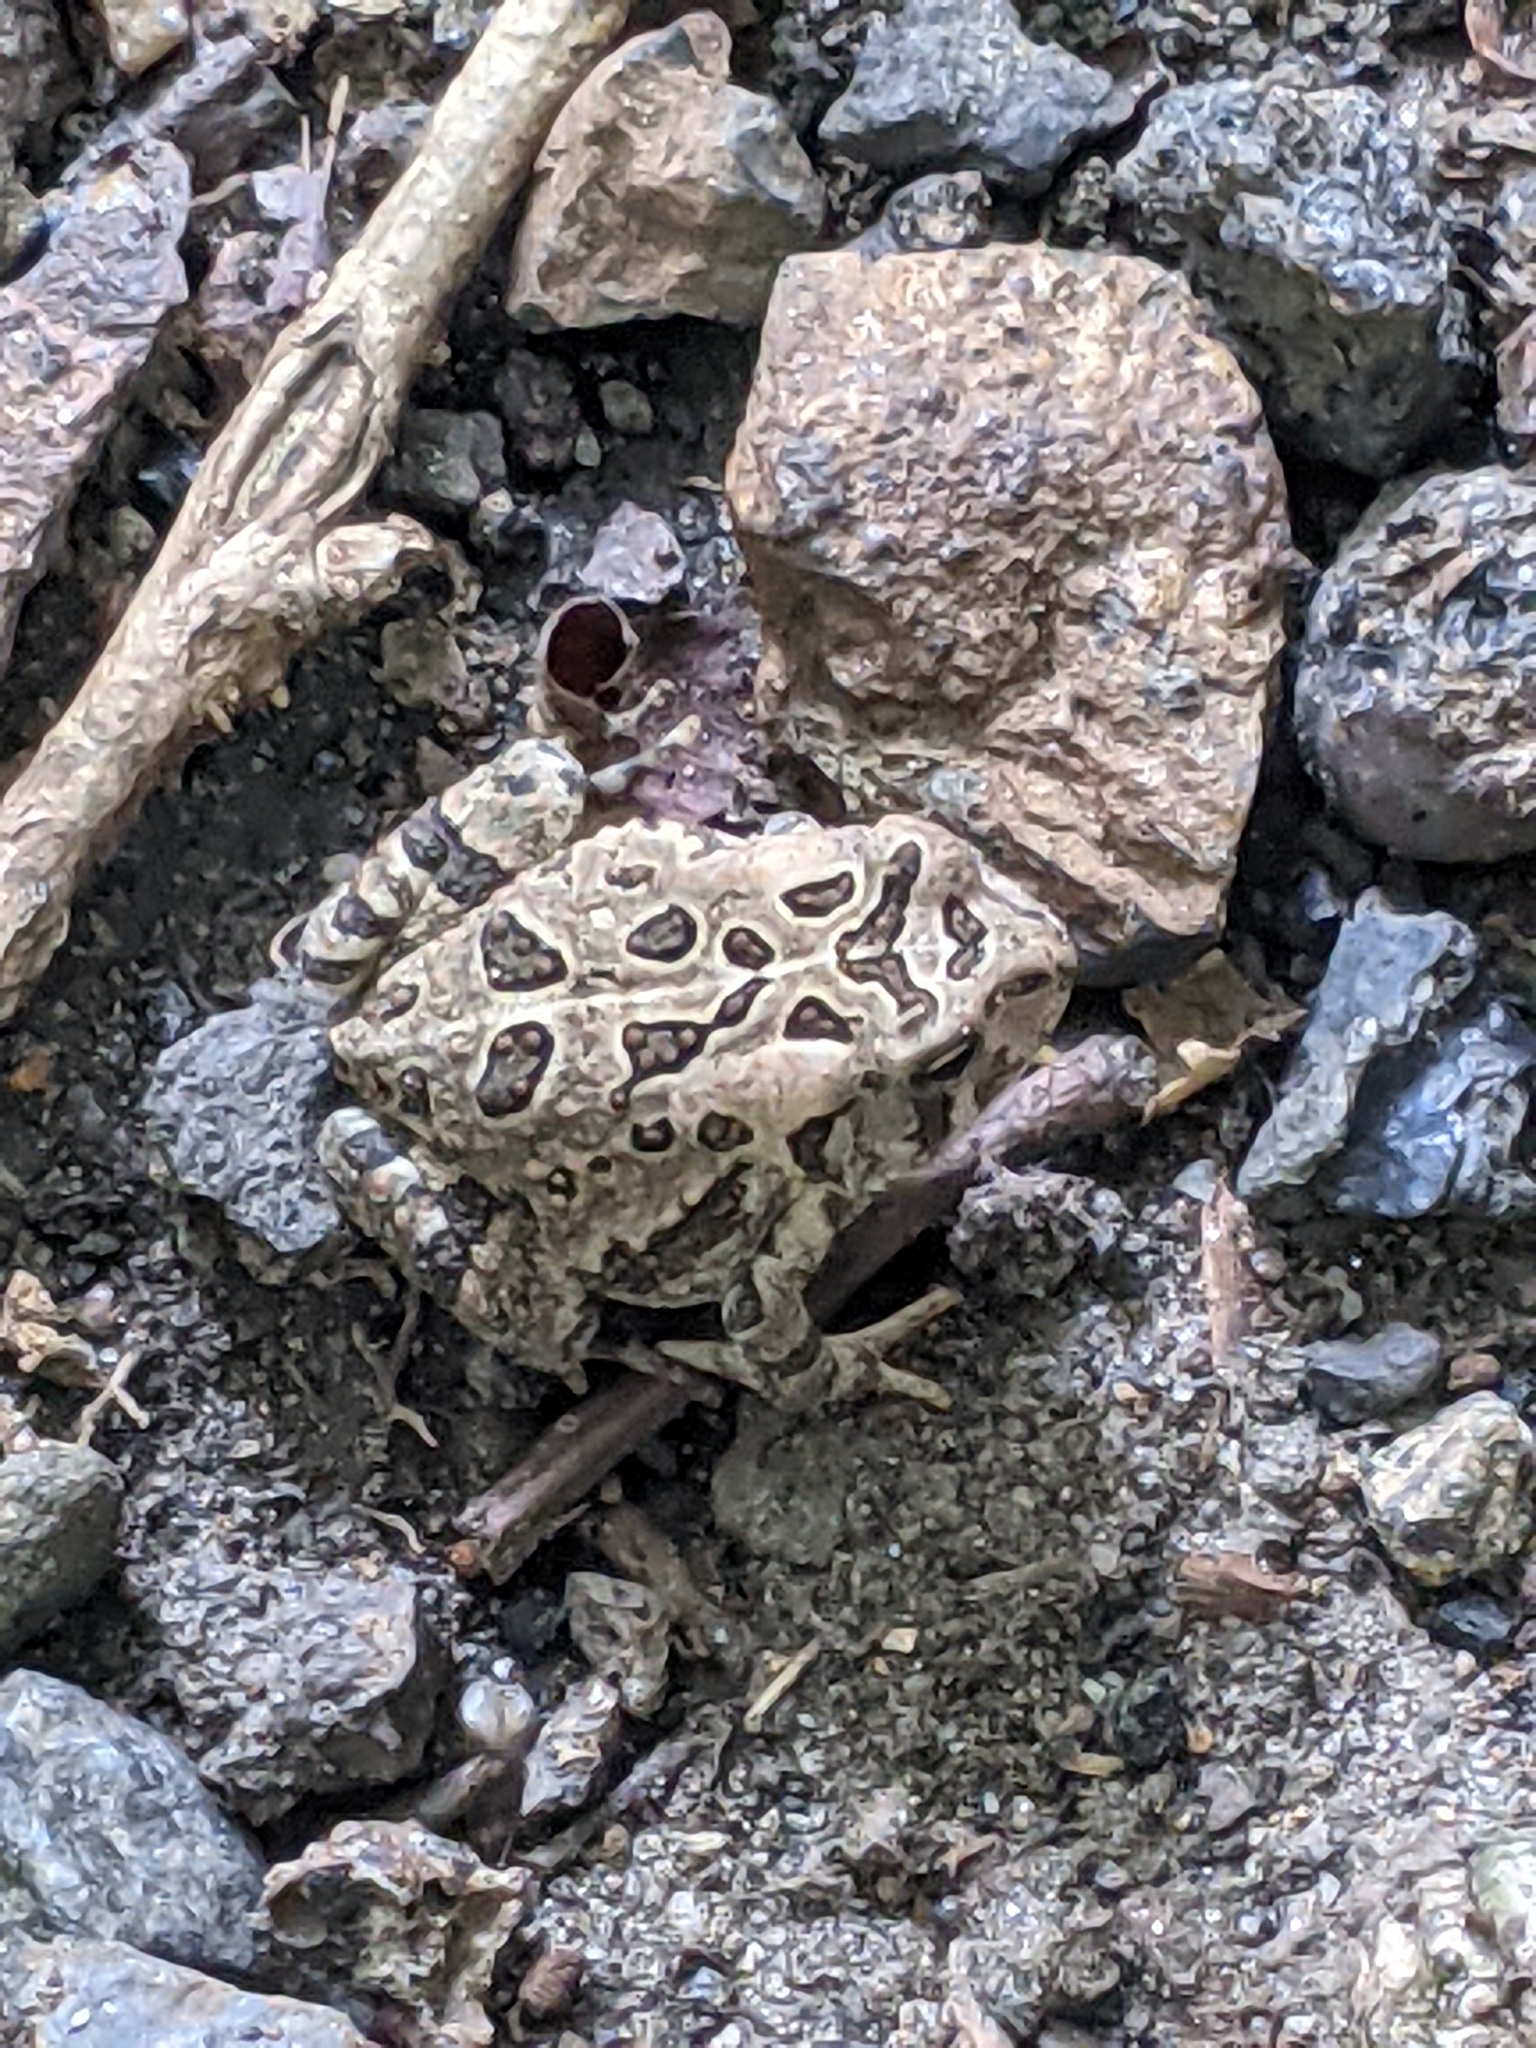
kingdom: Animalia
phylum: Chordata
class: Amphibia
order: Anura
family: Bufonidae
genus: Anaxyrus
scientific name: Anaxyrus fowleri
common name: Fowler's toad
